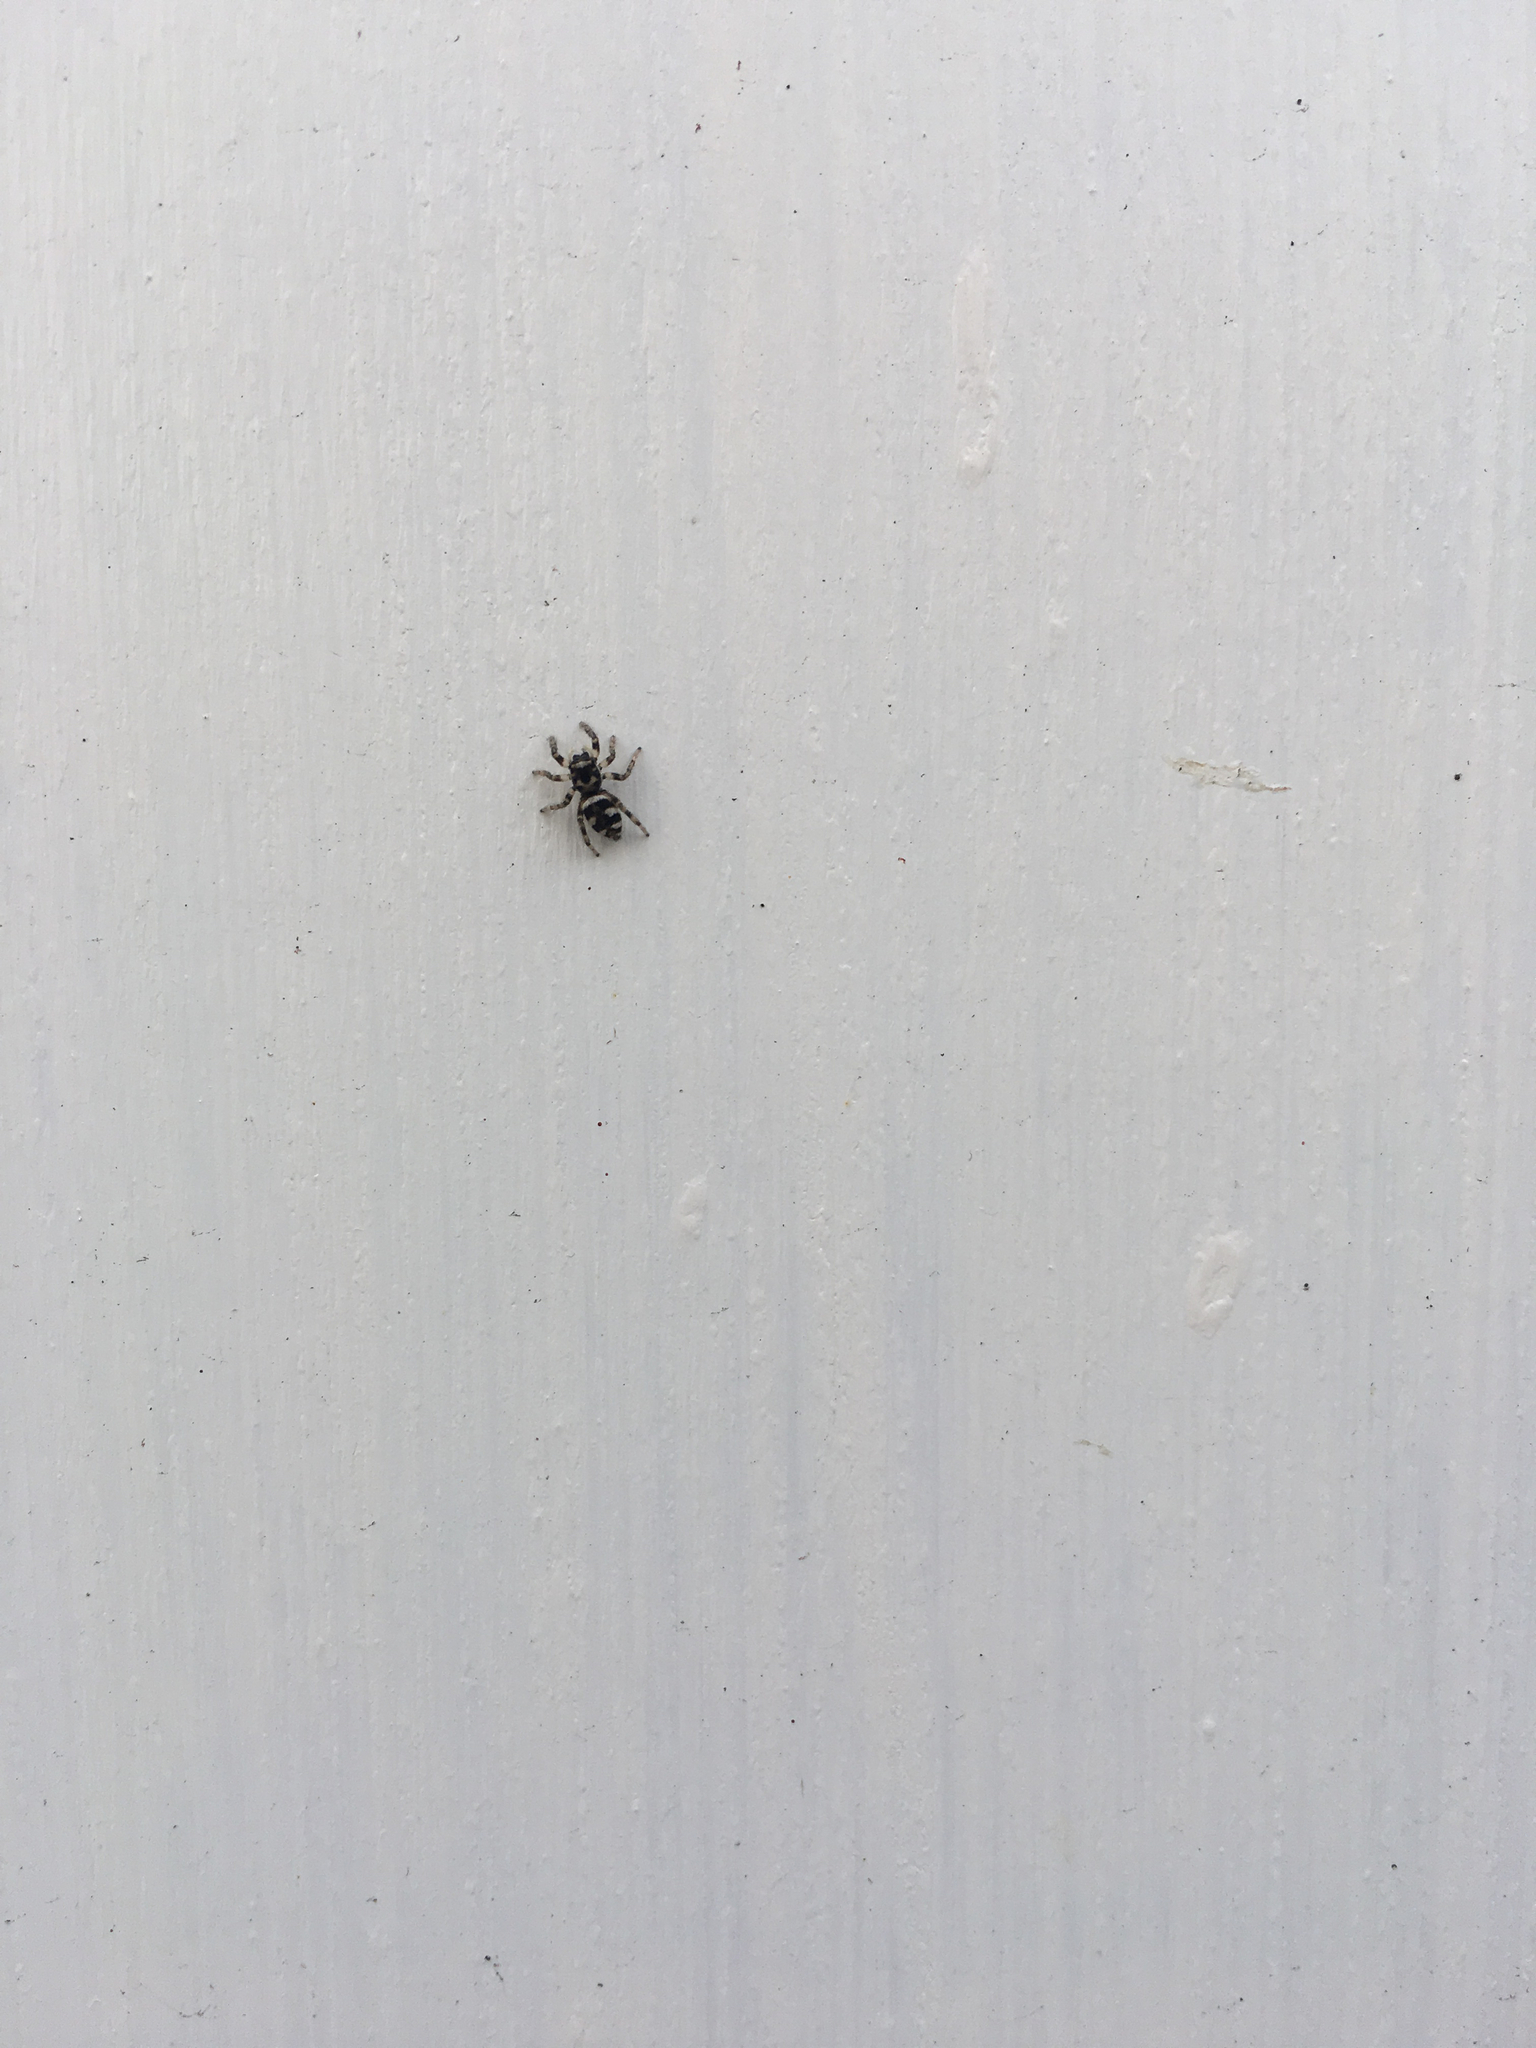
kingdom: Animalia
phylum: Arthropoda
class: Arachnida
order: Araneae
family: Salticidae
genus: Salticus
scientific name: Salticus scenicus
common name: Zebra jumper
